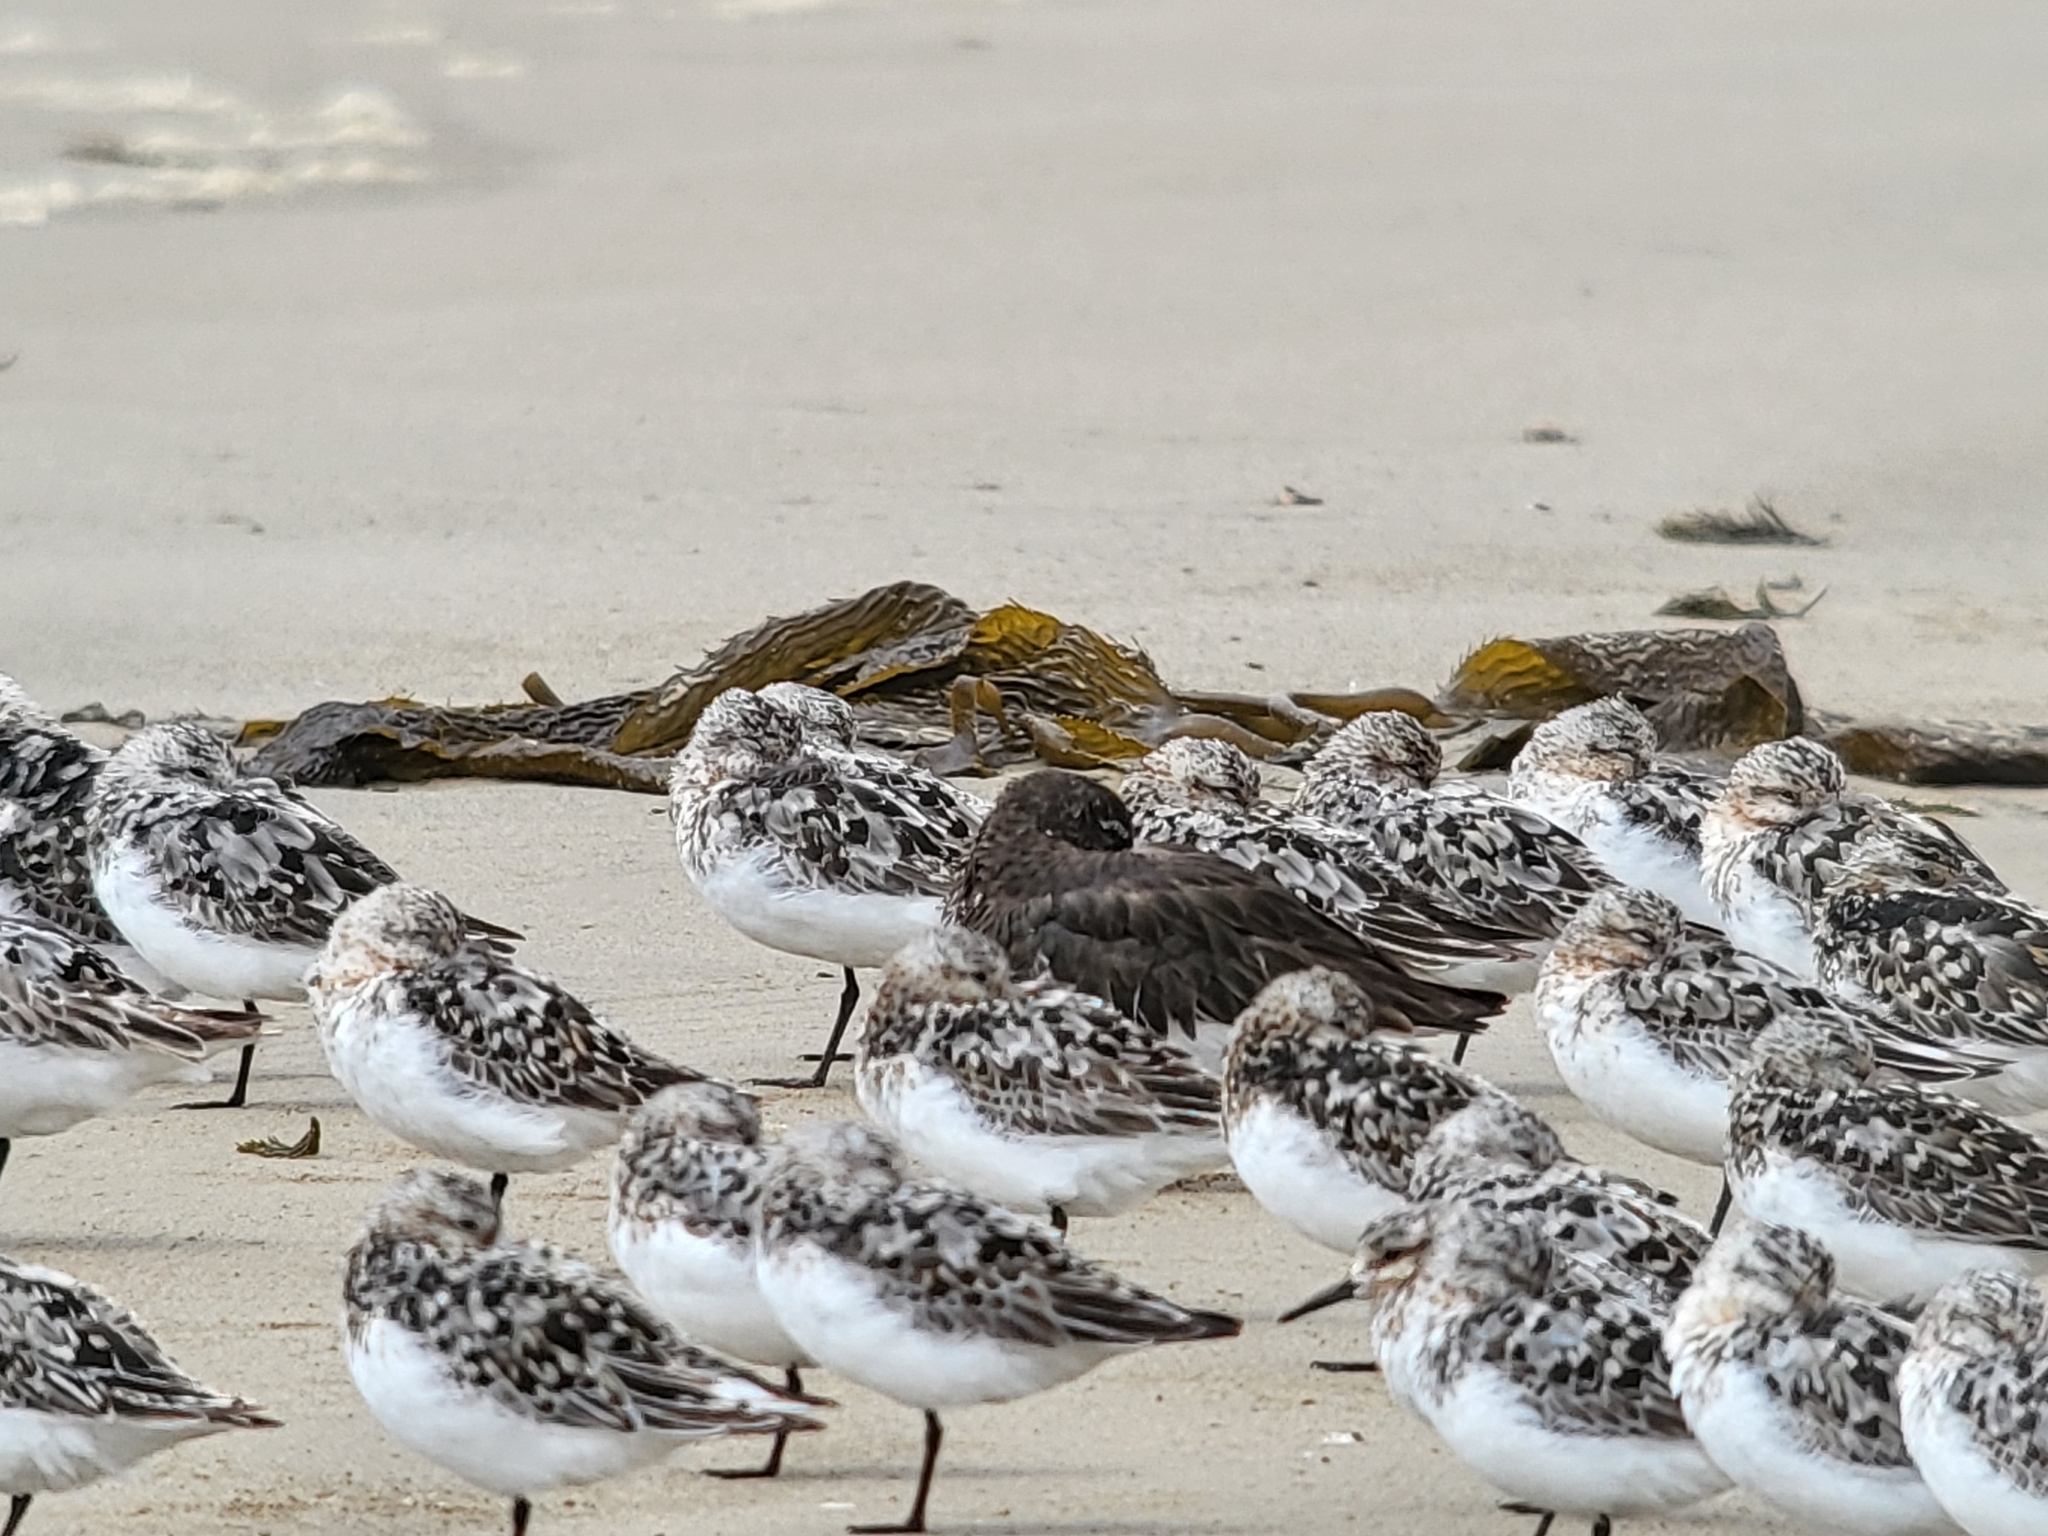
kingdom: Animalia
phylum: Chordata
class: Aves
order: Charadriiformes
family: Scolopacidae
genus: Arenaria
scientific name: Arenaria melanocephala
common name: Black turnstone
